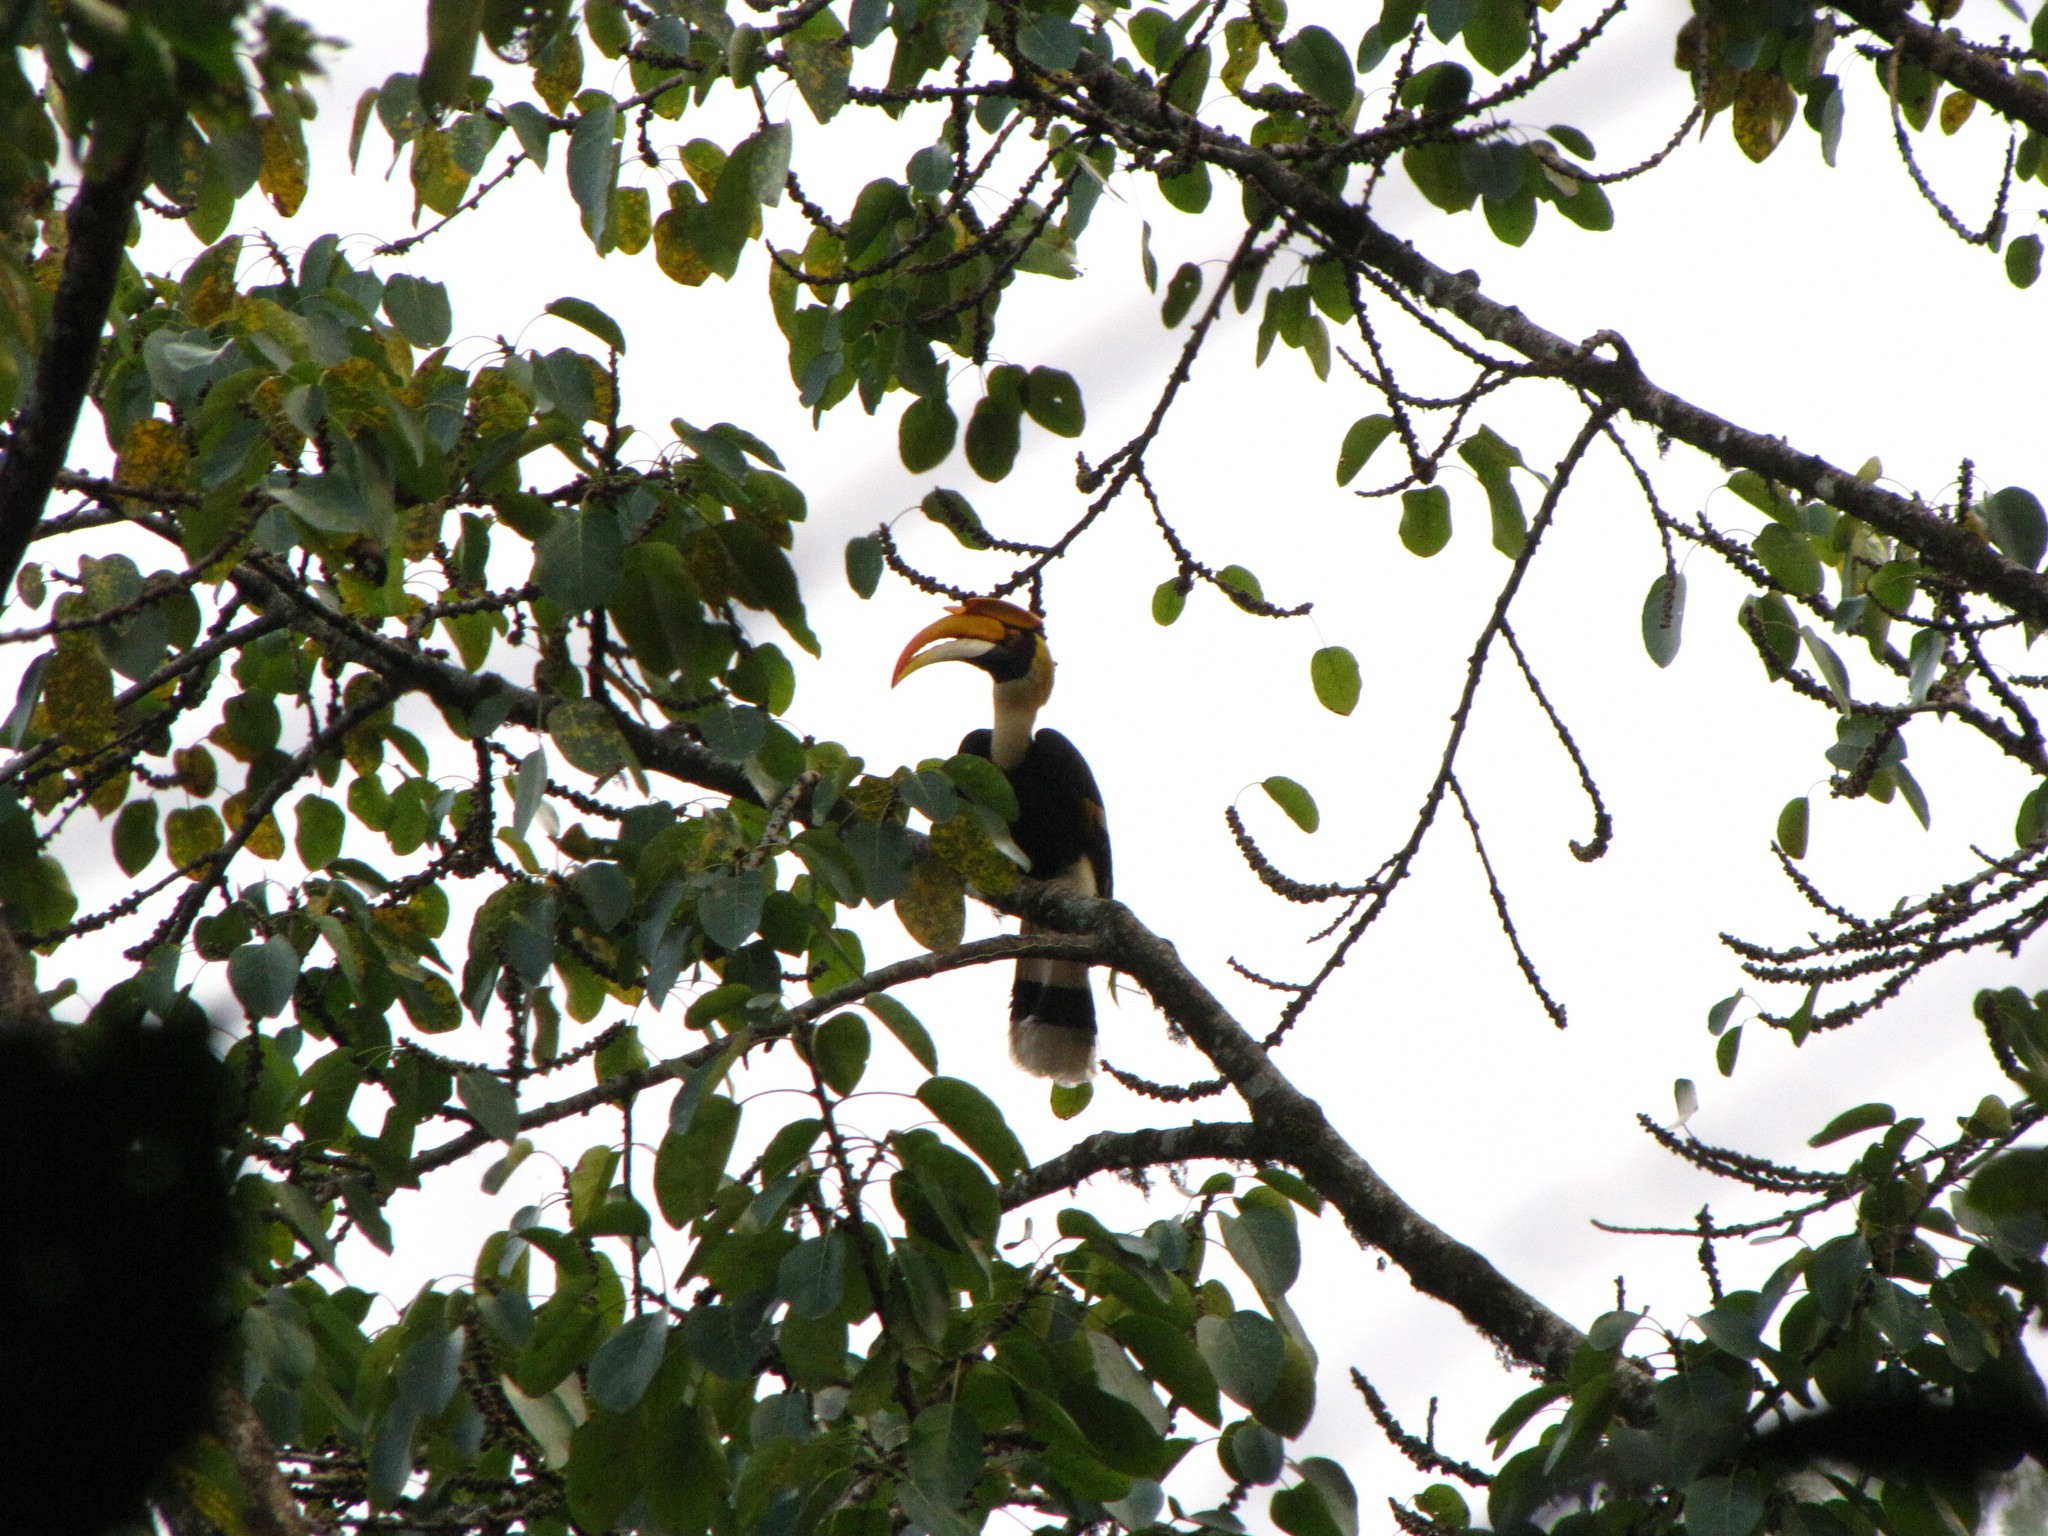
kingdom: Animalia
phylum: Chordata
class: Aves
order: Bucerotiformes
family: Bucerotidae
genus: Buceros
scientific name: Buceros bicornis
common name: Great hornbill
